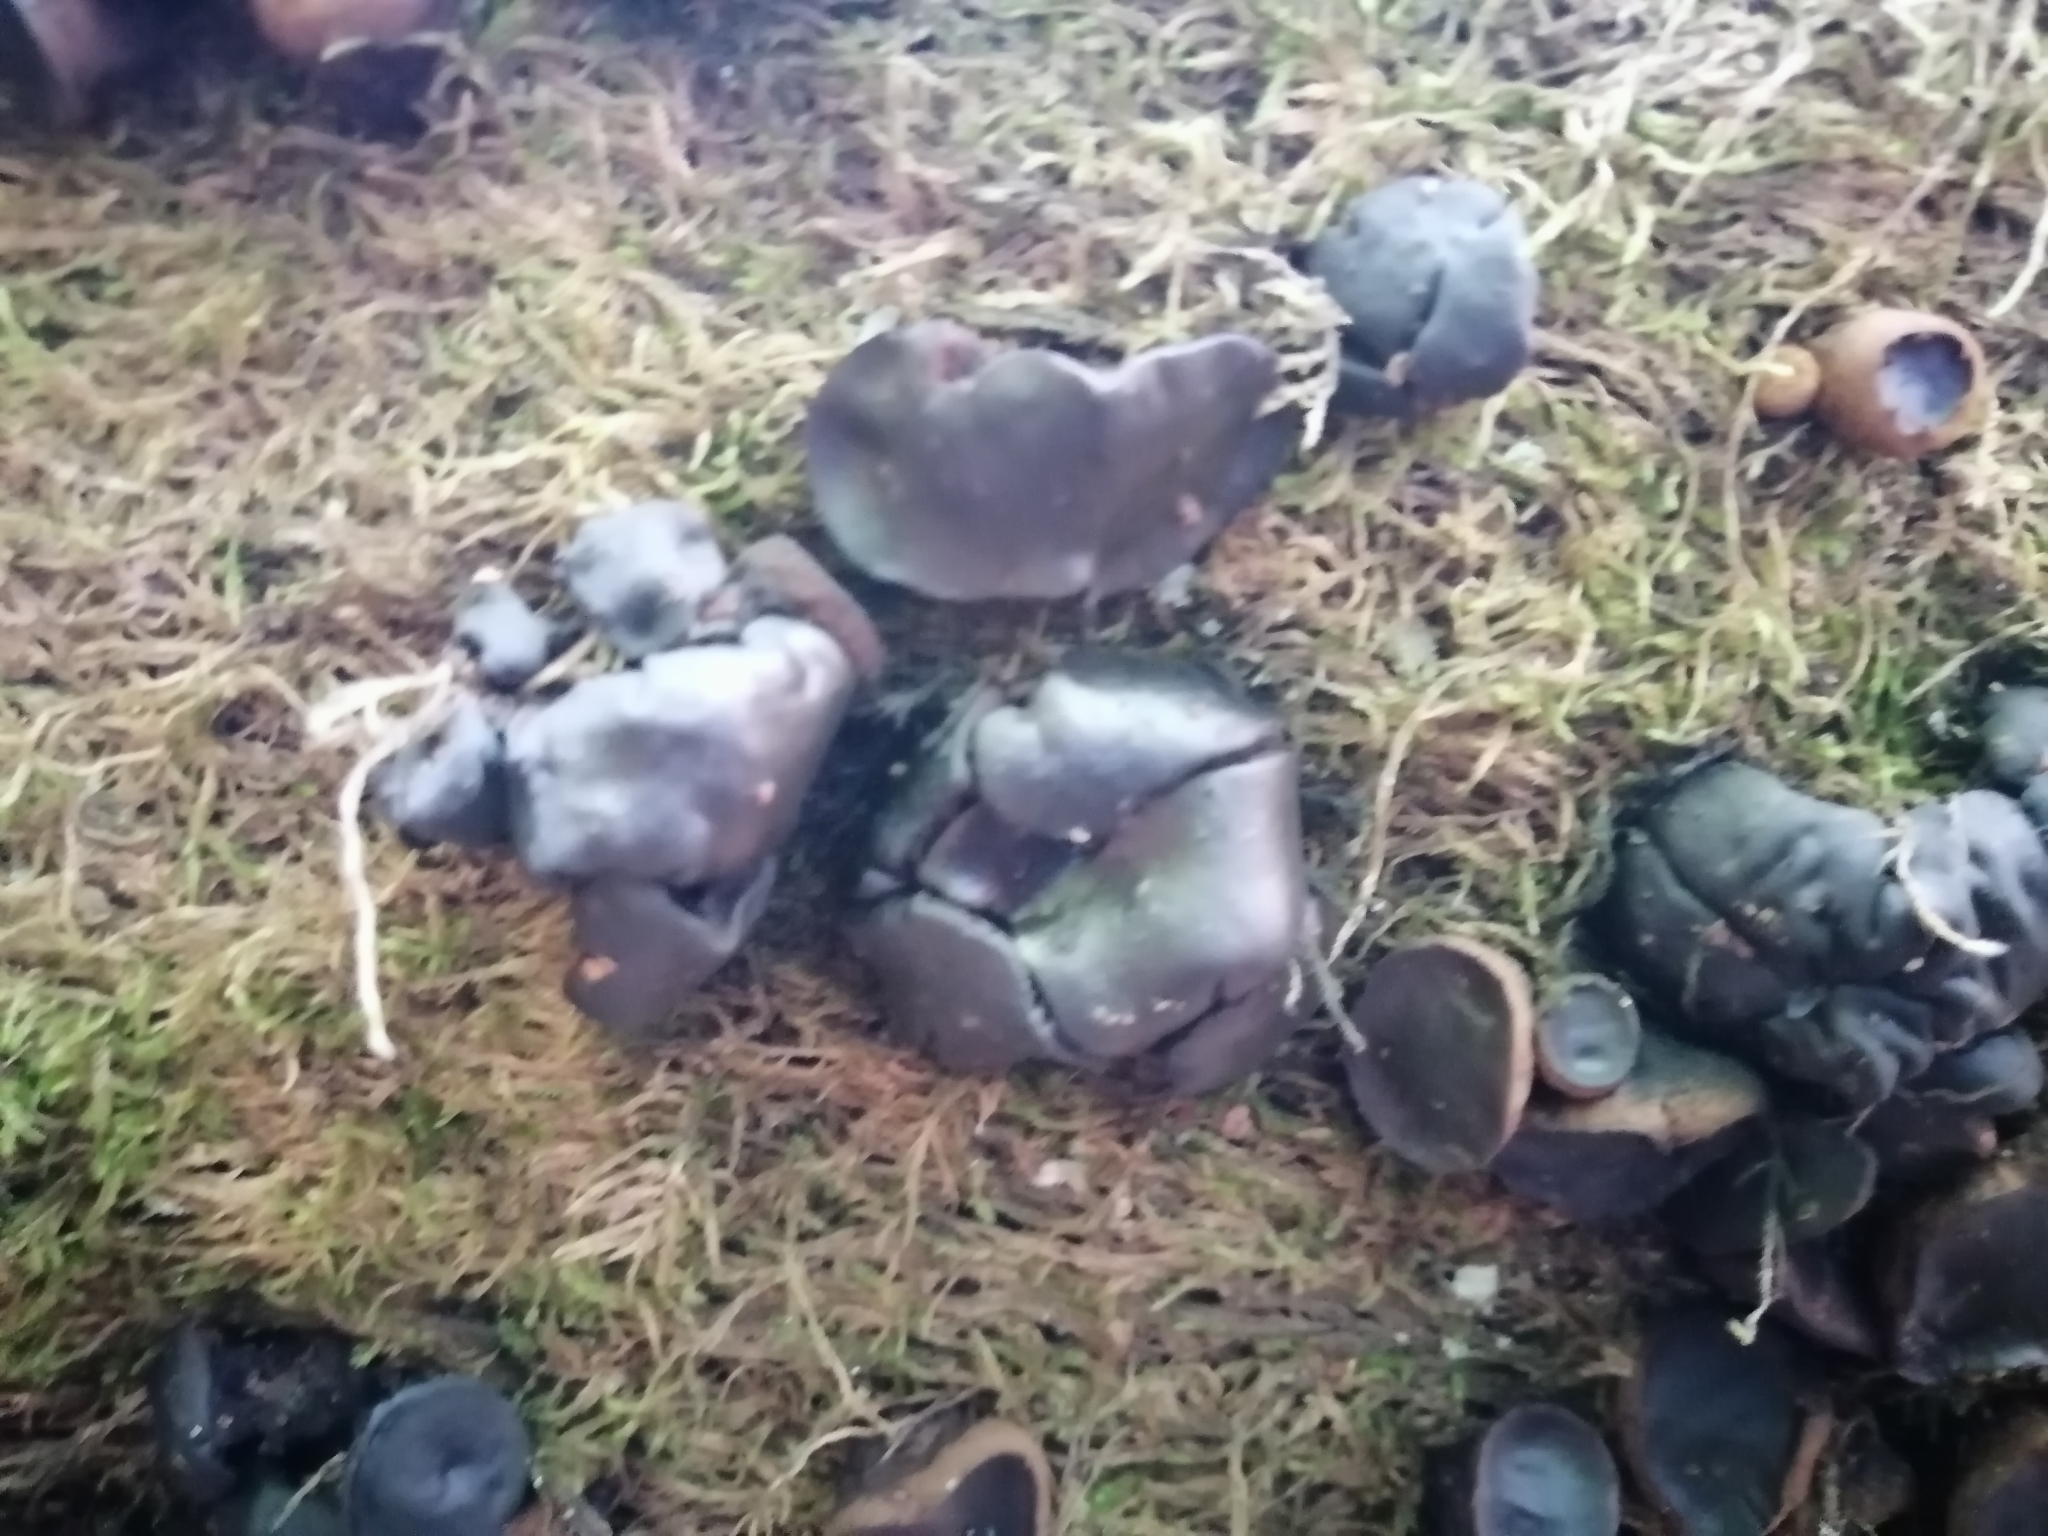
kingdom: Fungi
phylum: Ascomycota
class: Leotiomycetes
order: Phacidiales
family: Phacidiaceae
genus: Bulgaria
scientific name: Bulgaria inquinans
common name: Black bulgar
